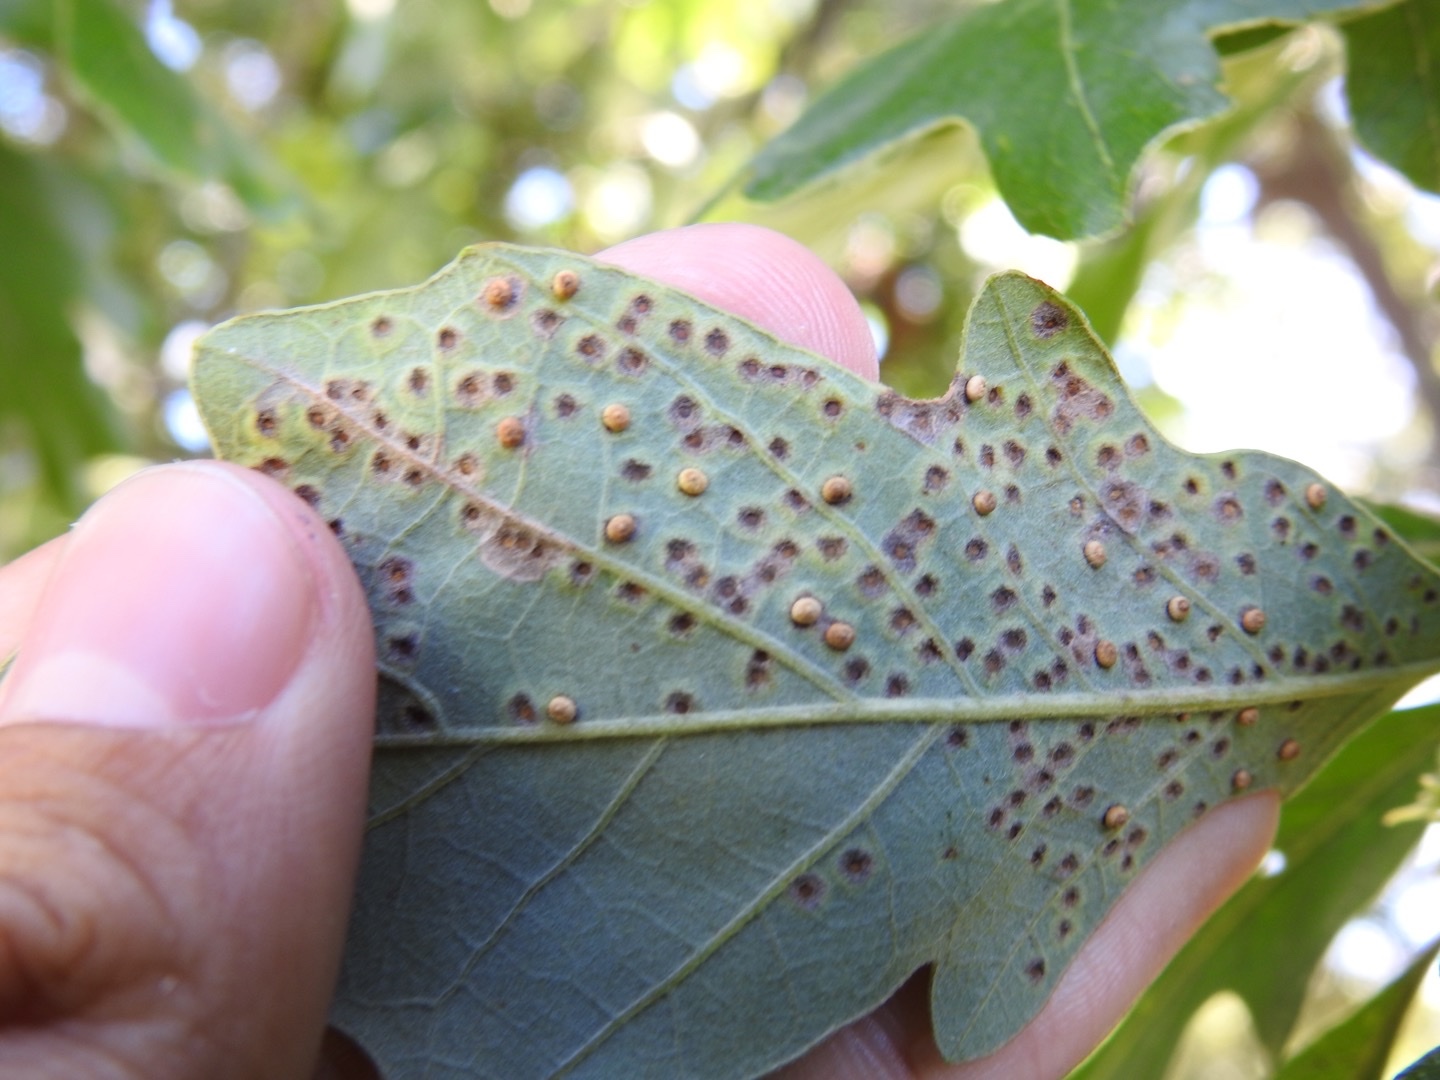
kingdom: Animalia
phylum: Arthropoda
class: Insecta
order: Hymenoptera
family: Cynipidae
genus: Neuroterus
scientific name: Neuroterus saltarius
